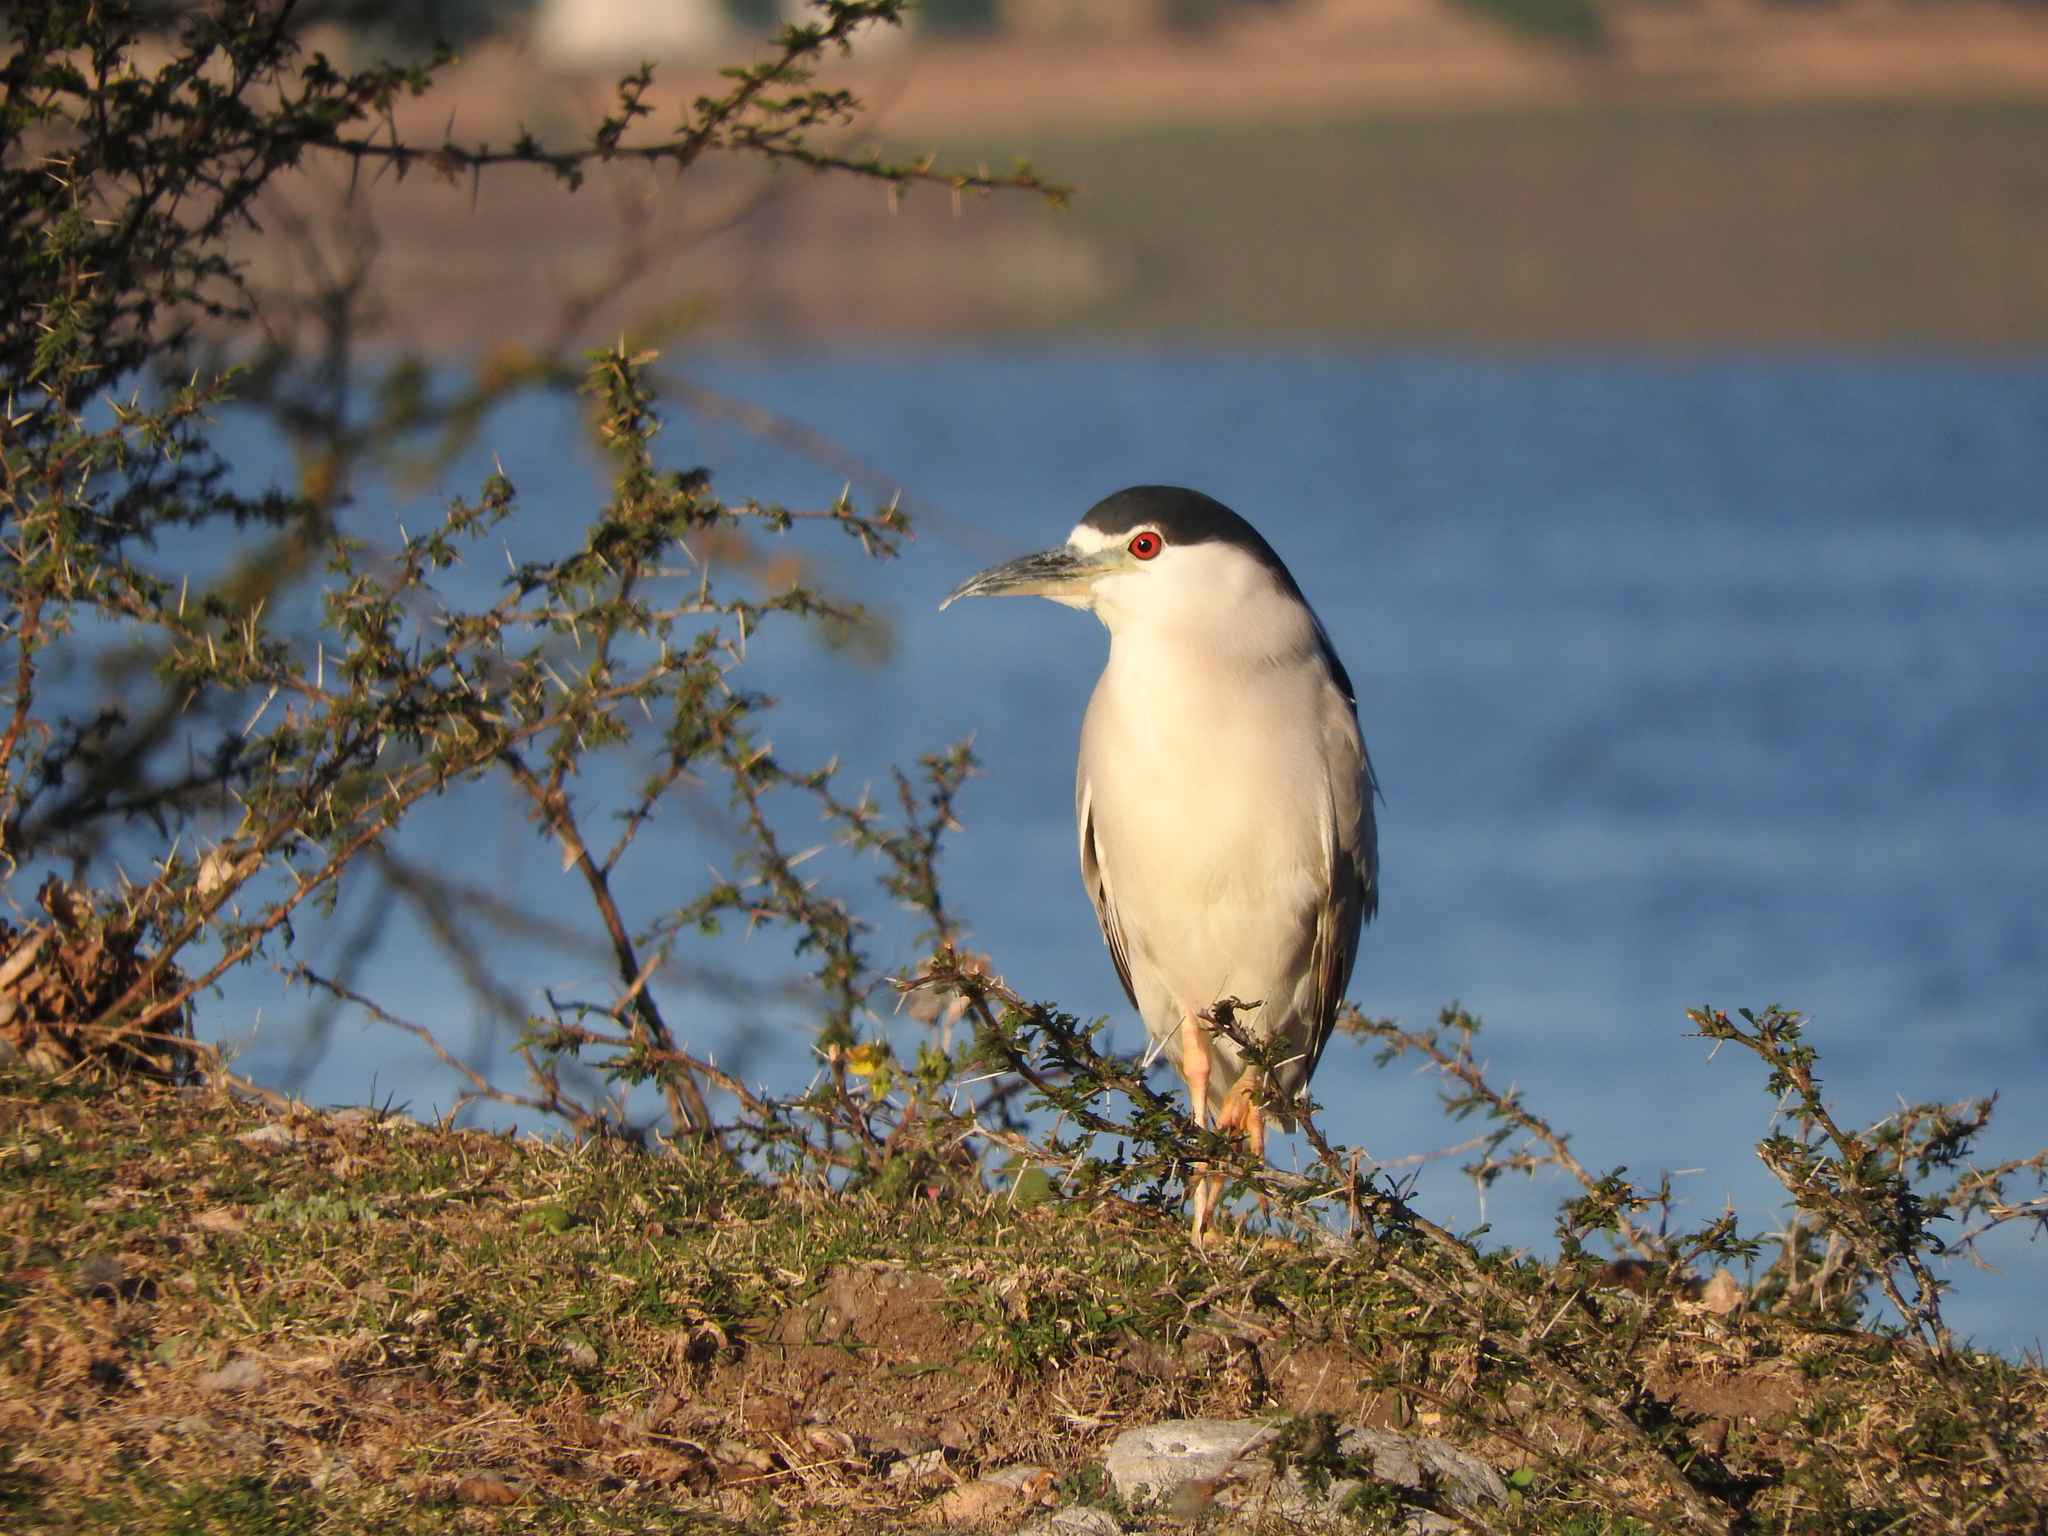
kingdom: Animalia
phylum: Chordata
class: Aves
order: Pelecaniformes
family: Ardeidae
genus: Nycticorax
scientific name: Nycticorax nycticorax
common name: Black-crowned night heron
